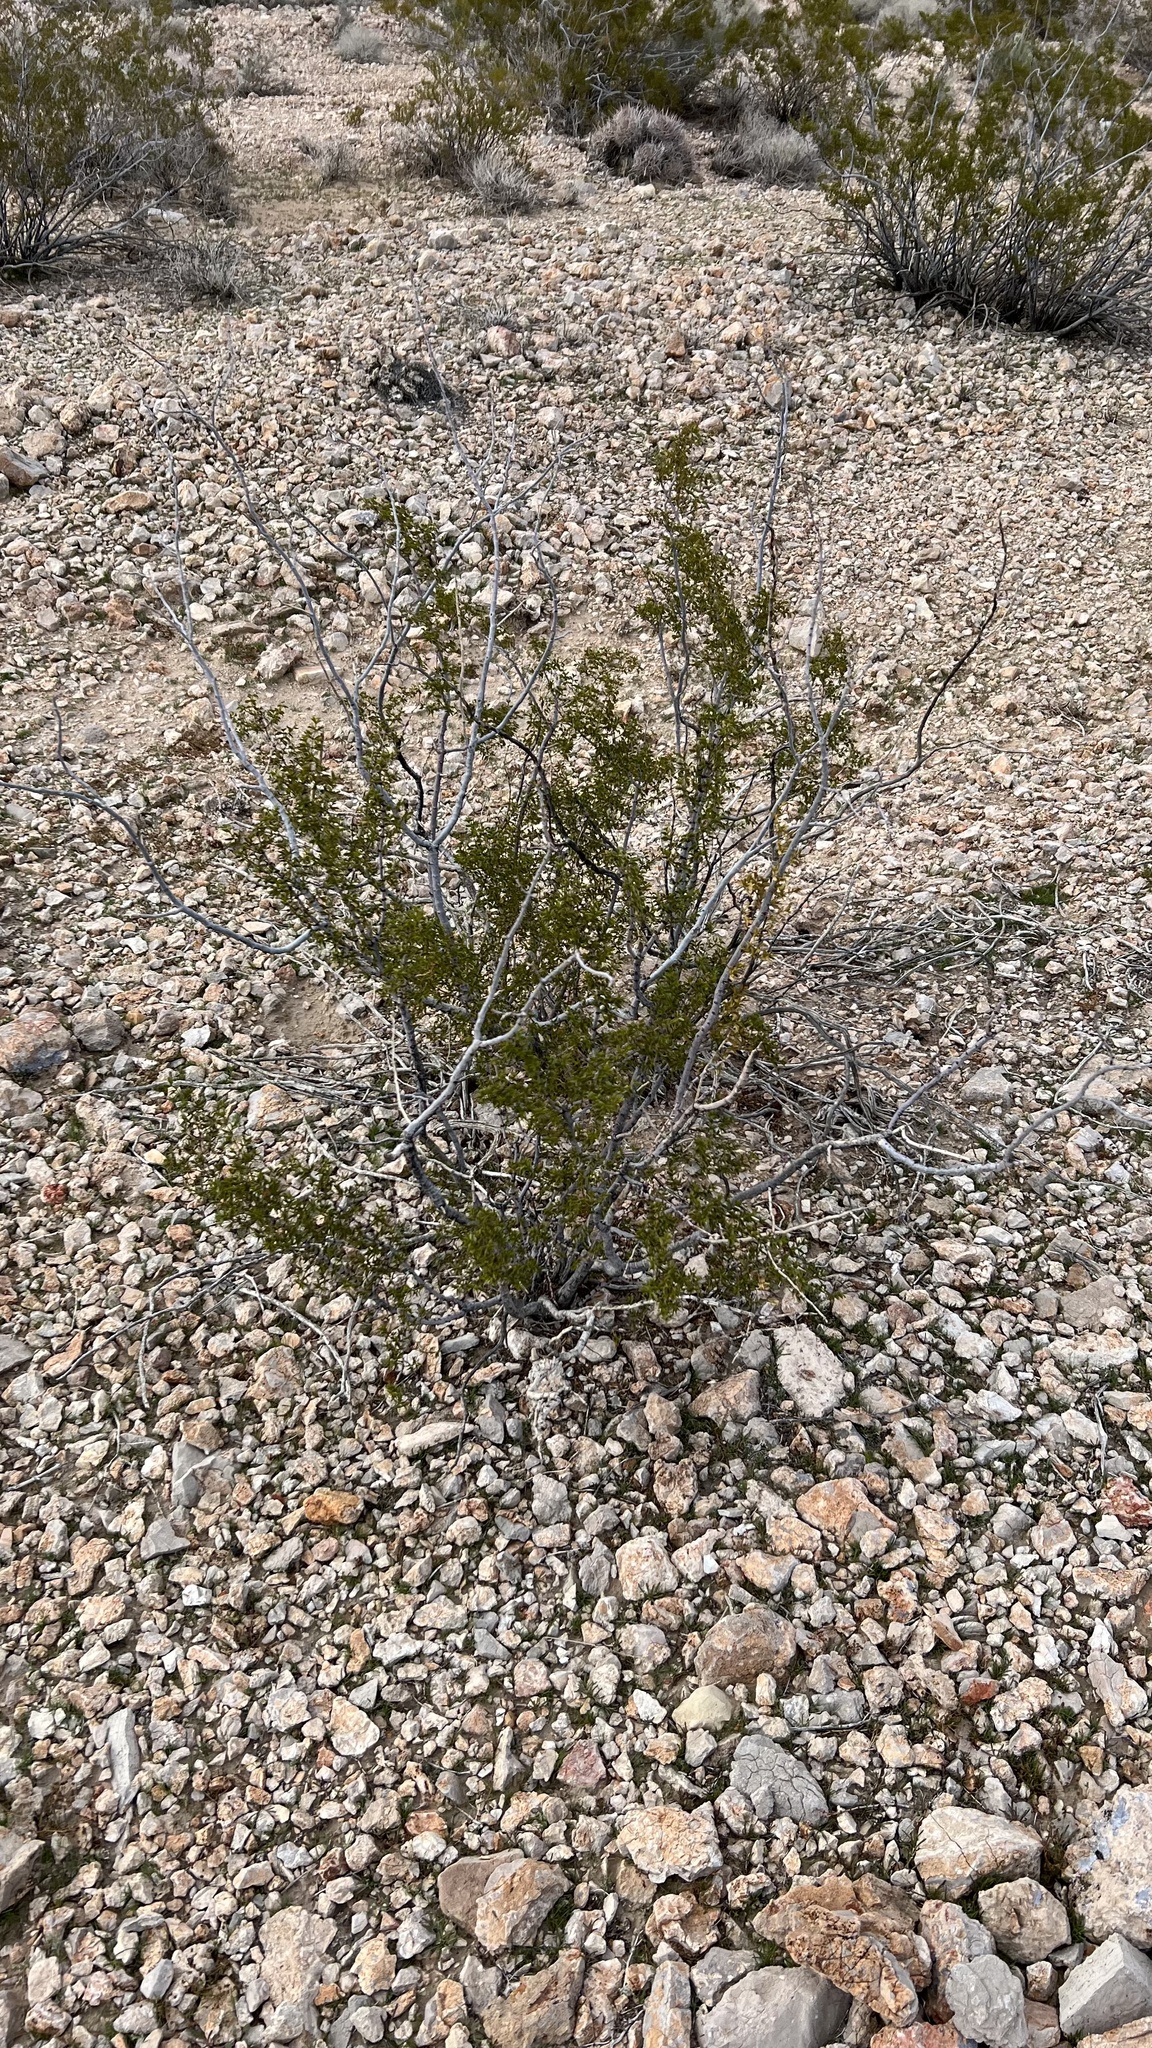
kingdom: Plantae
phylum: Tracheophyta
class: Magnoliopsida
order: Zygophyllales
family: Zygophyllaceae
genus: Larrea
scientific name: Larrea tridentata
